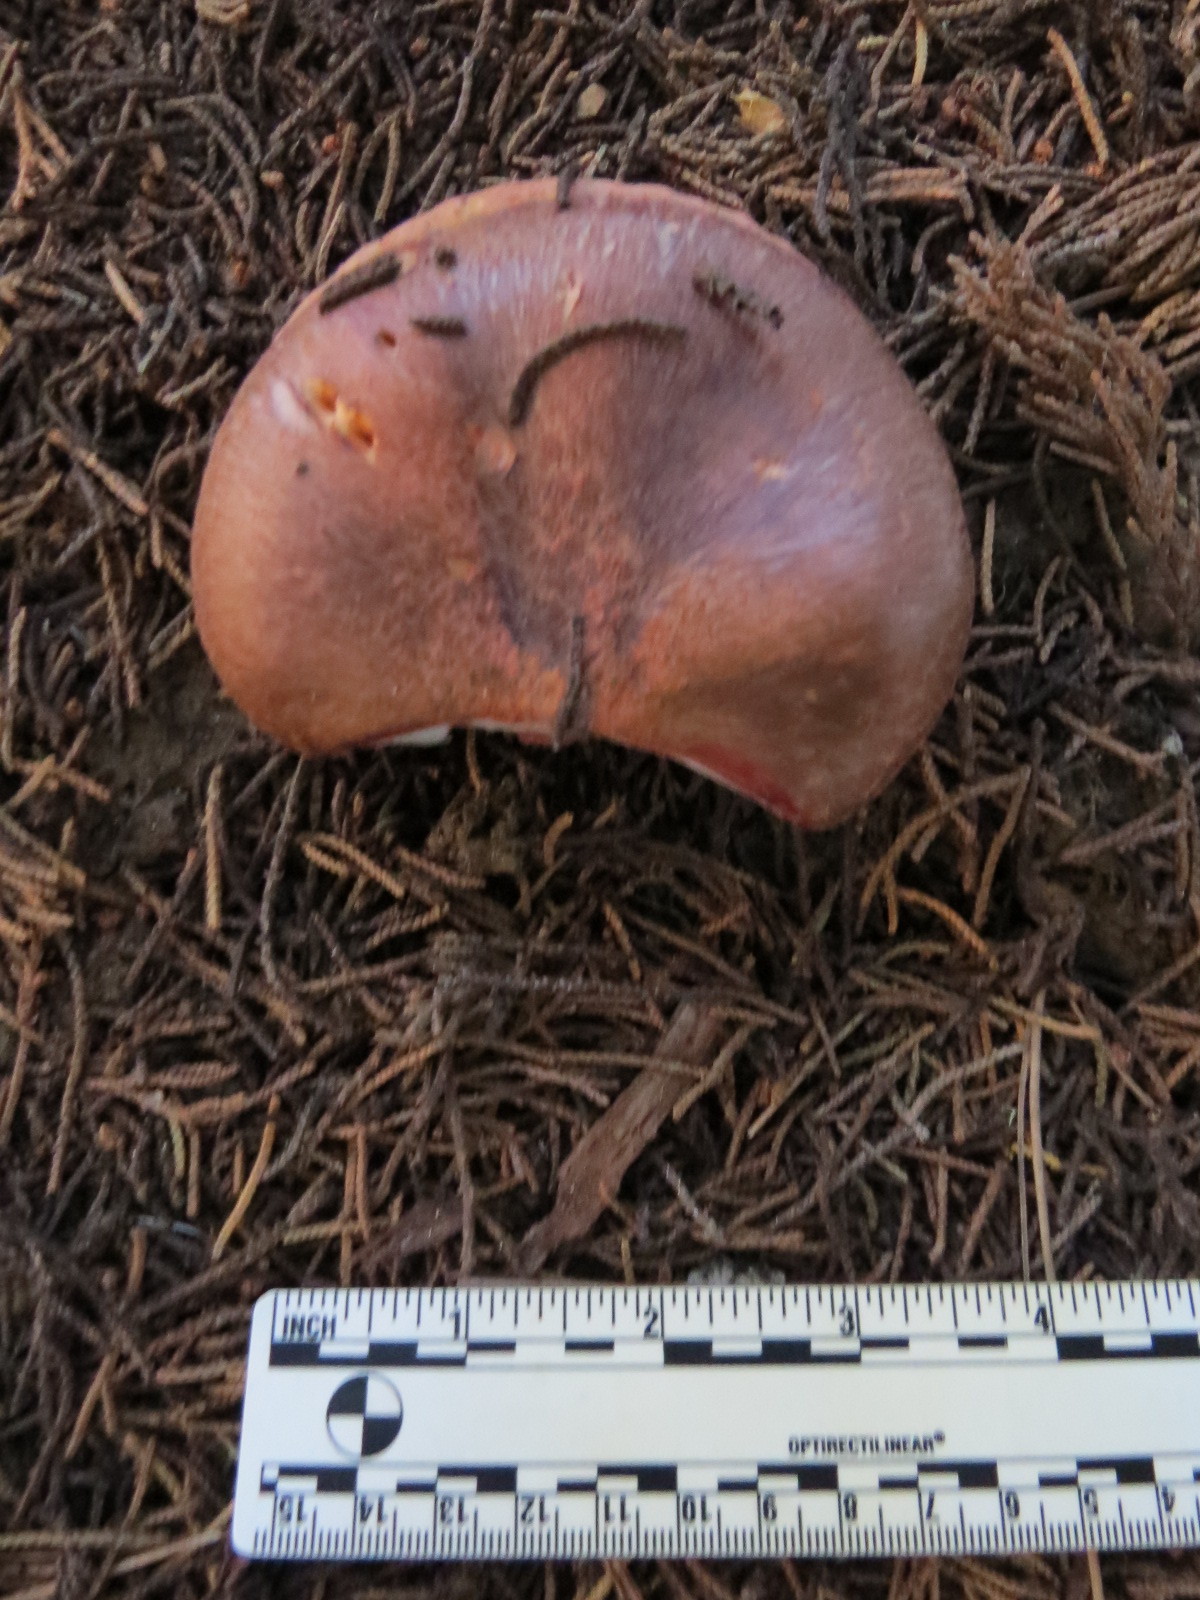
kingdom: Fungi
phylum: Basidiomycota
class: Agaricomycetes
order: Boletales
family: Gomphidiaceae
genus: Chroogomphus
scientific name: Chroogomphus vinicolor
